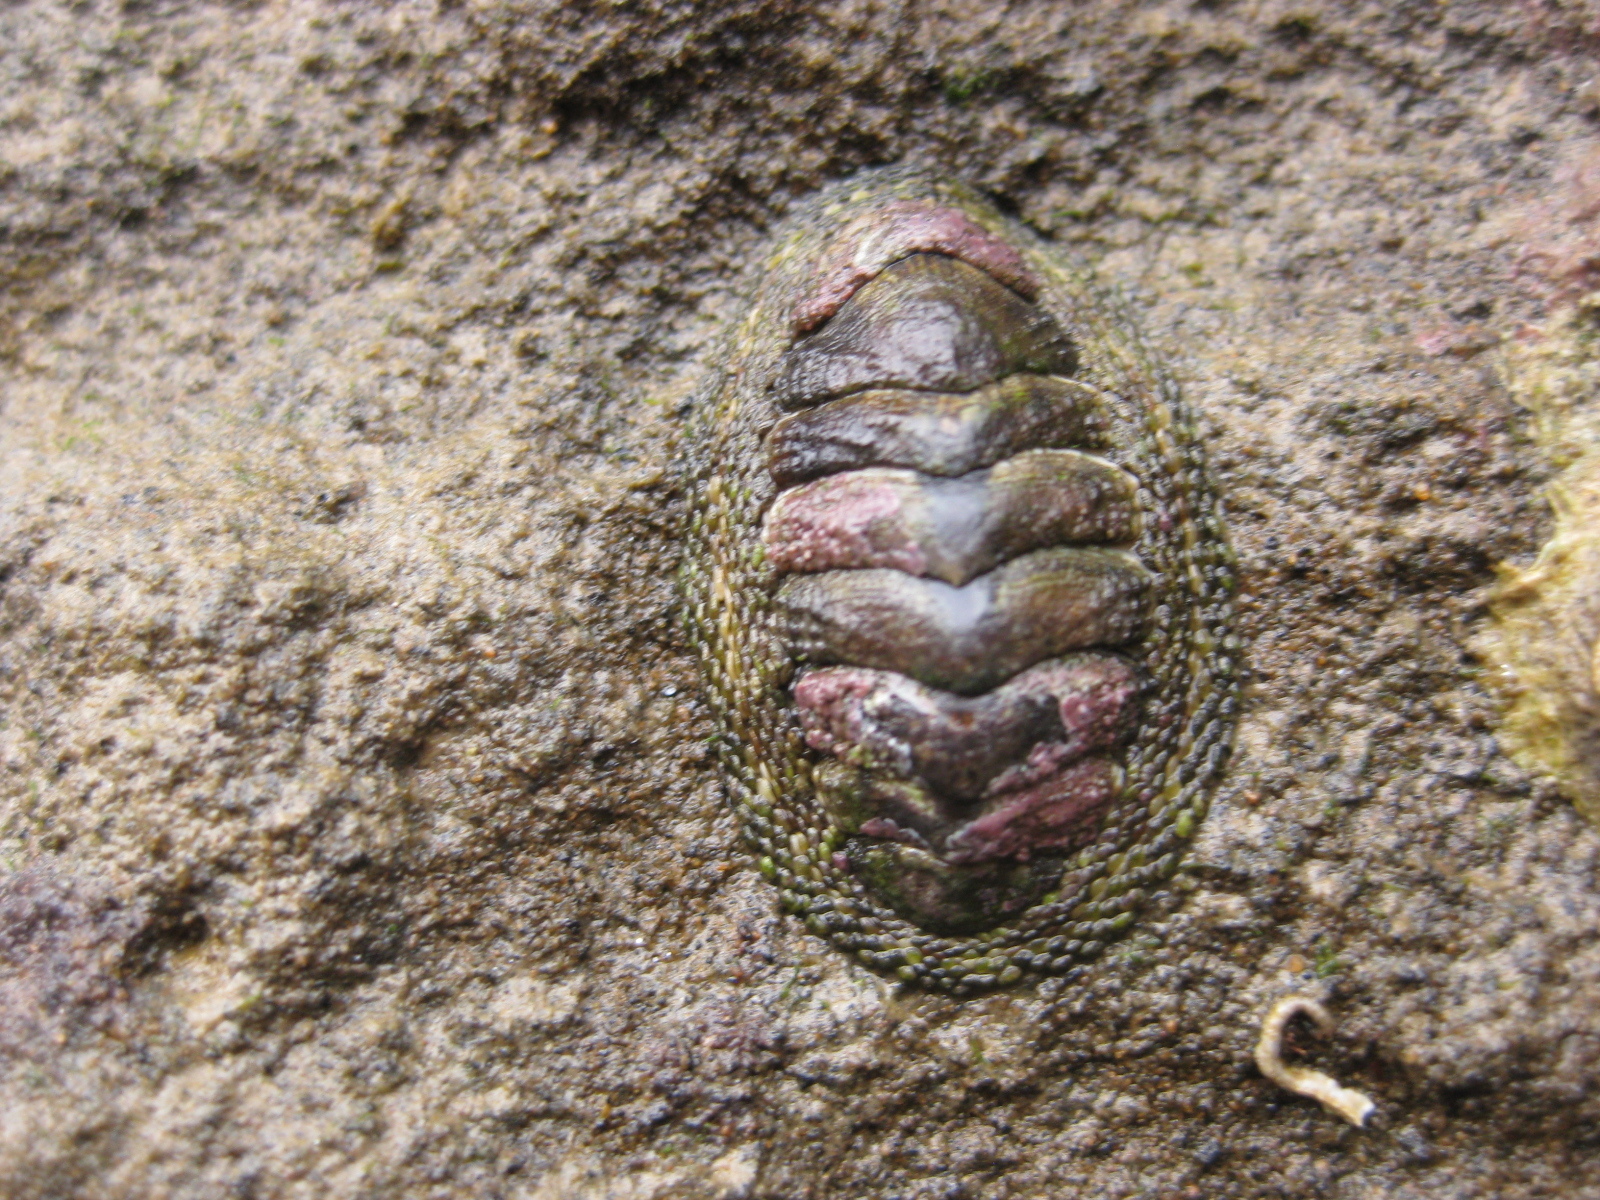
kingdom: Animalia
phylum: Mollusca
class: Polyplacophora
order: Chitonida
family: Chitonidae
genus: Sypharochiton
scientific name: Sypharochiton pelliserpentis
